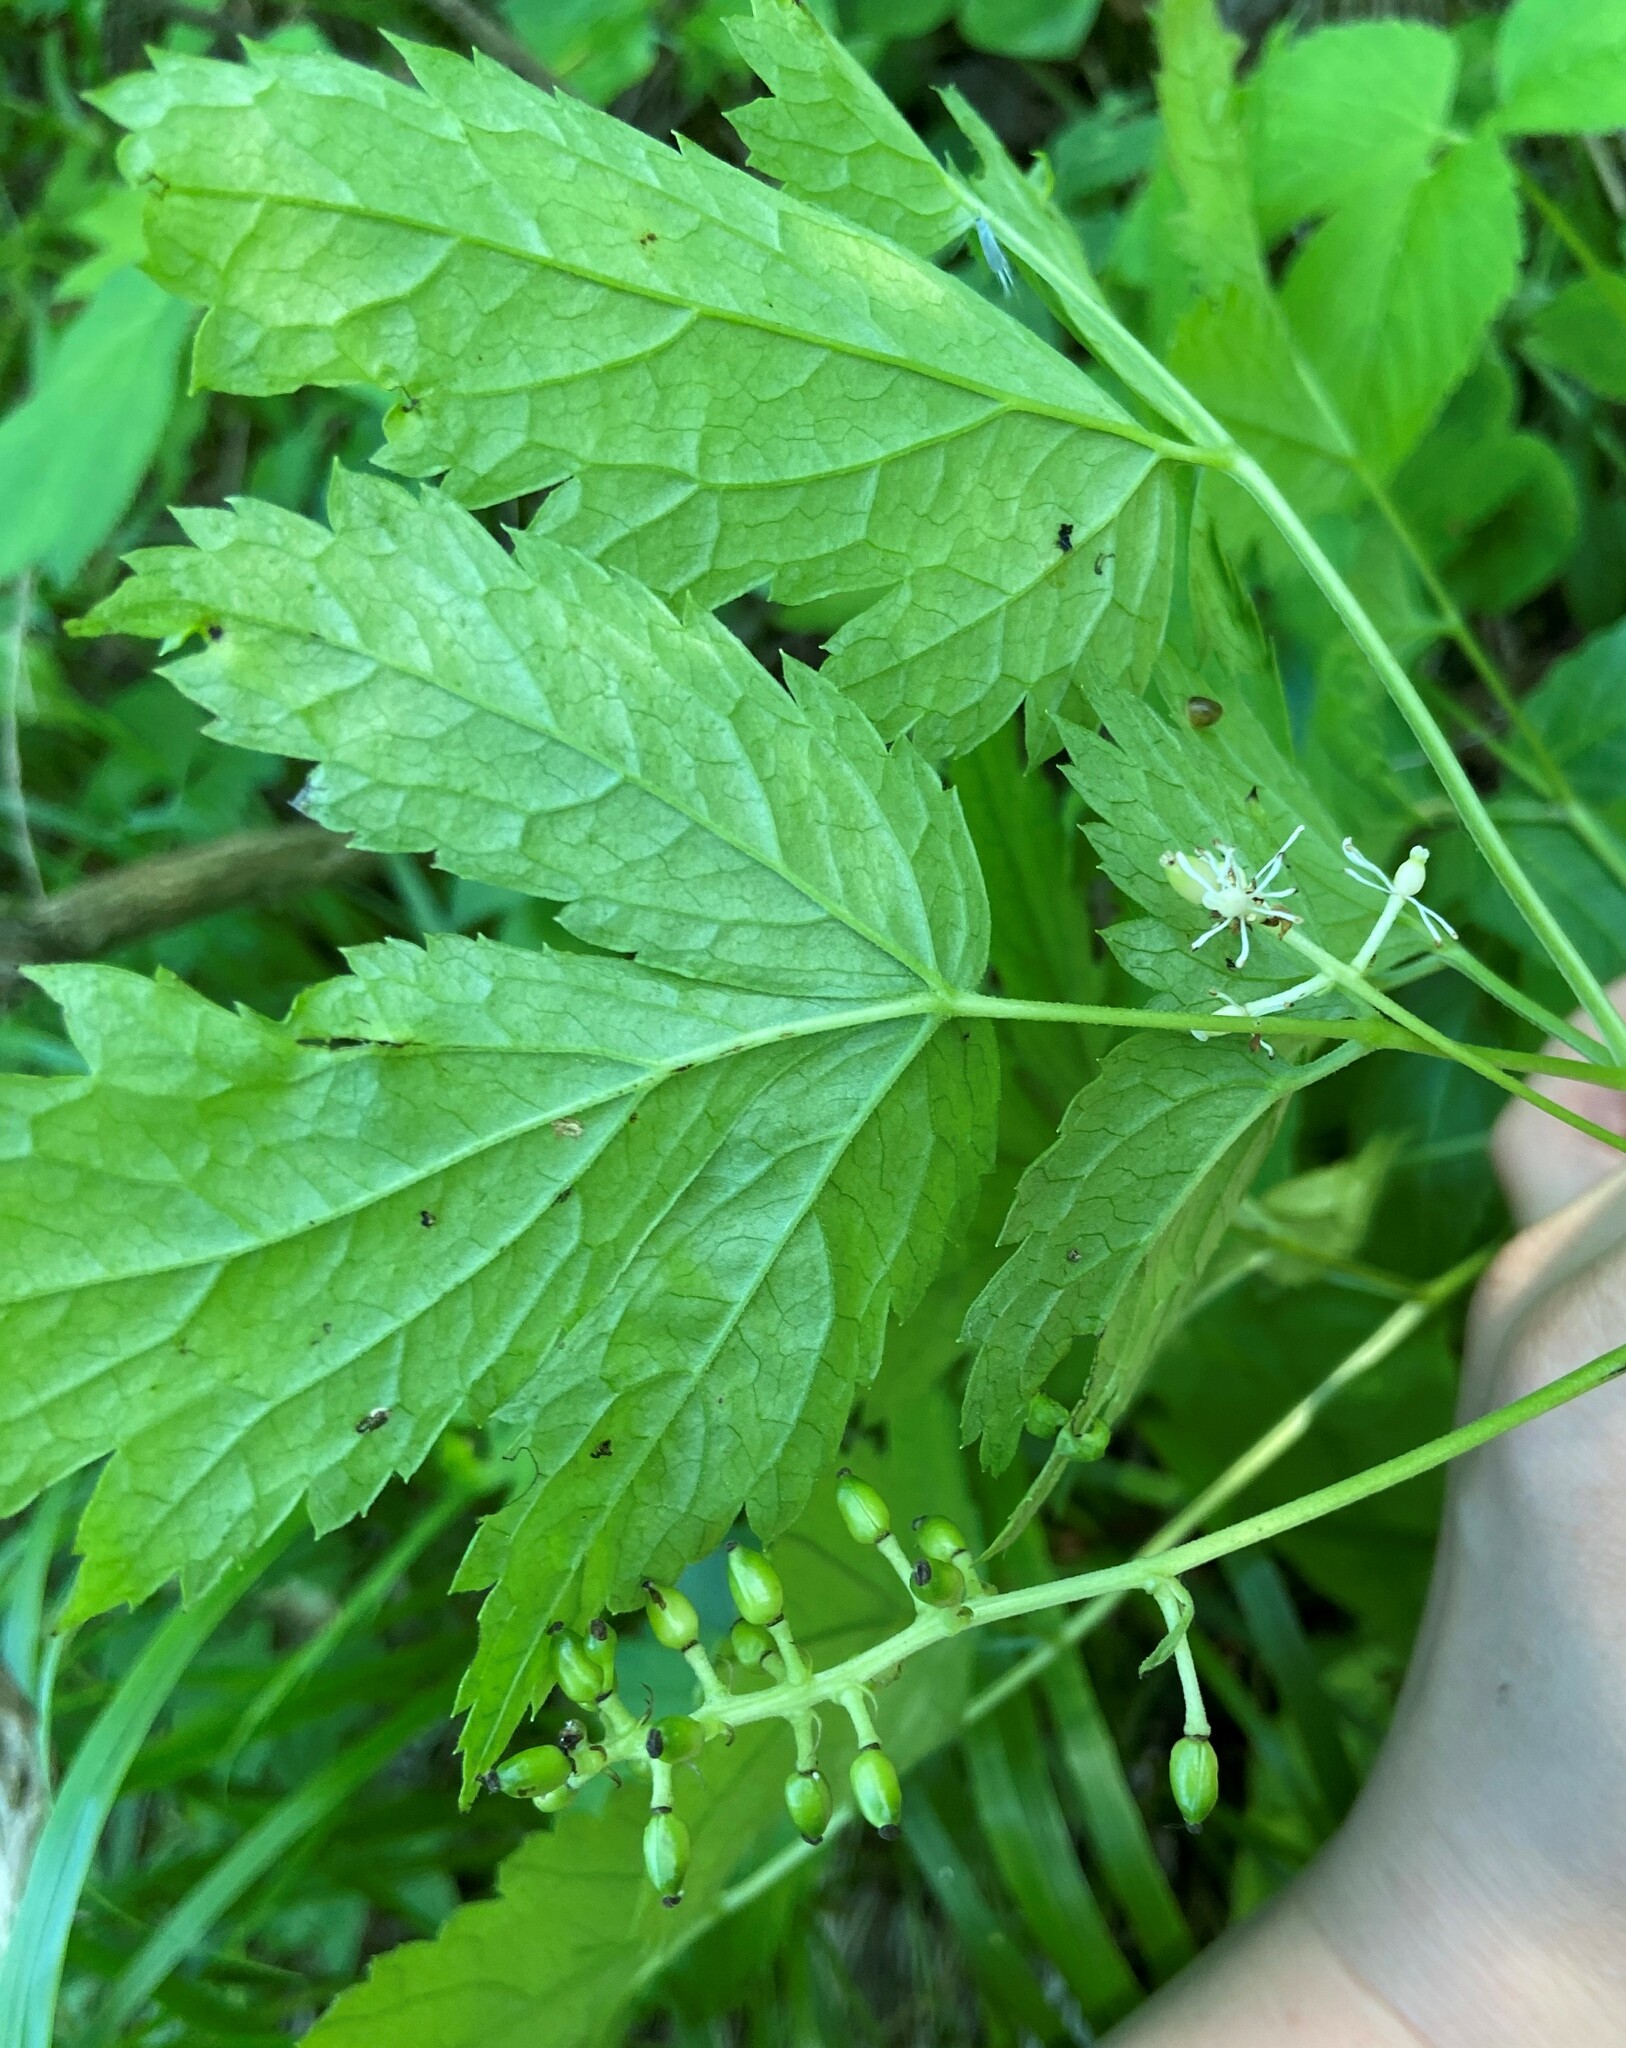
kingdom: Plantae
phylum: Tracheophyta
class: Magnoliopsida
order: Ranunculales
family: Ranunculaceae
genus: Actaea
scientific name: Actaea spicata
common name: Baneberry
